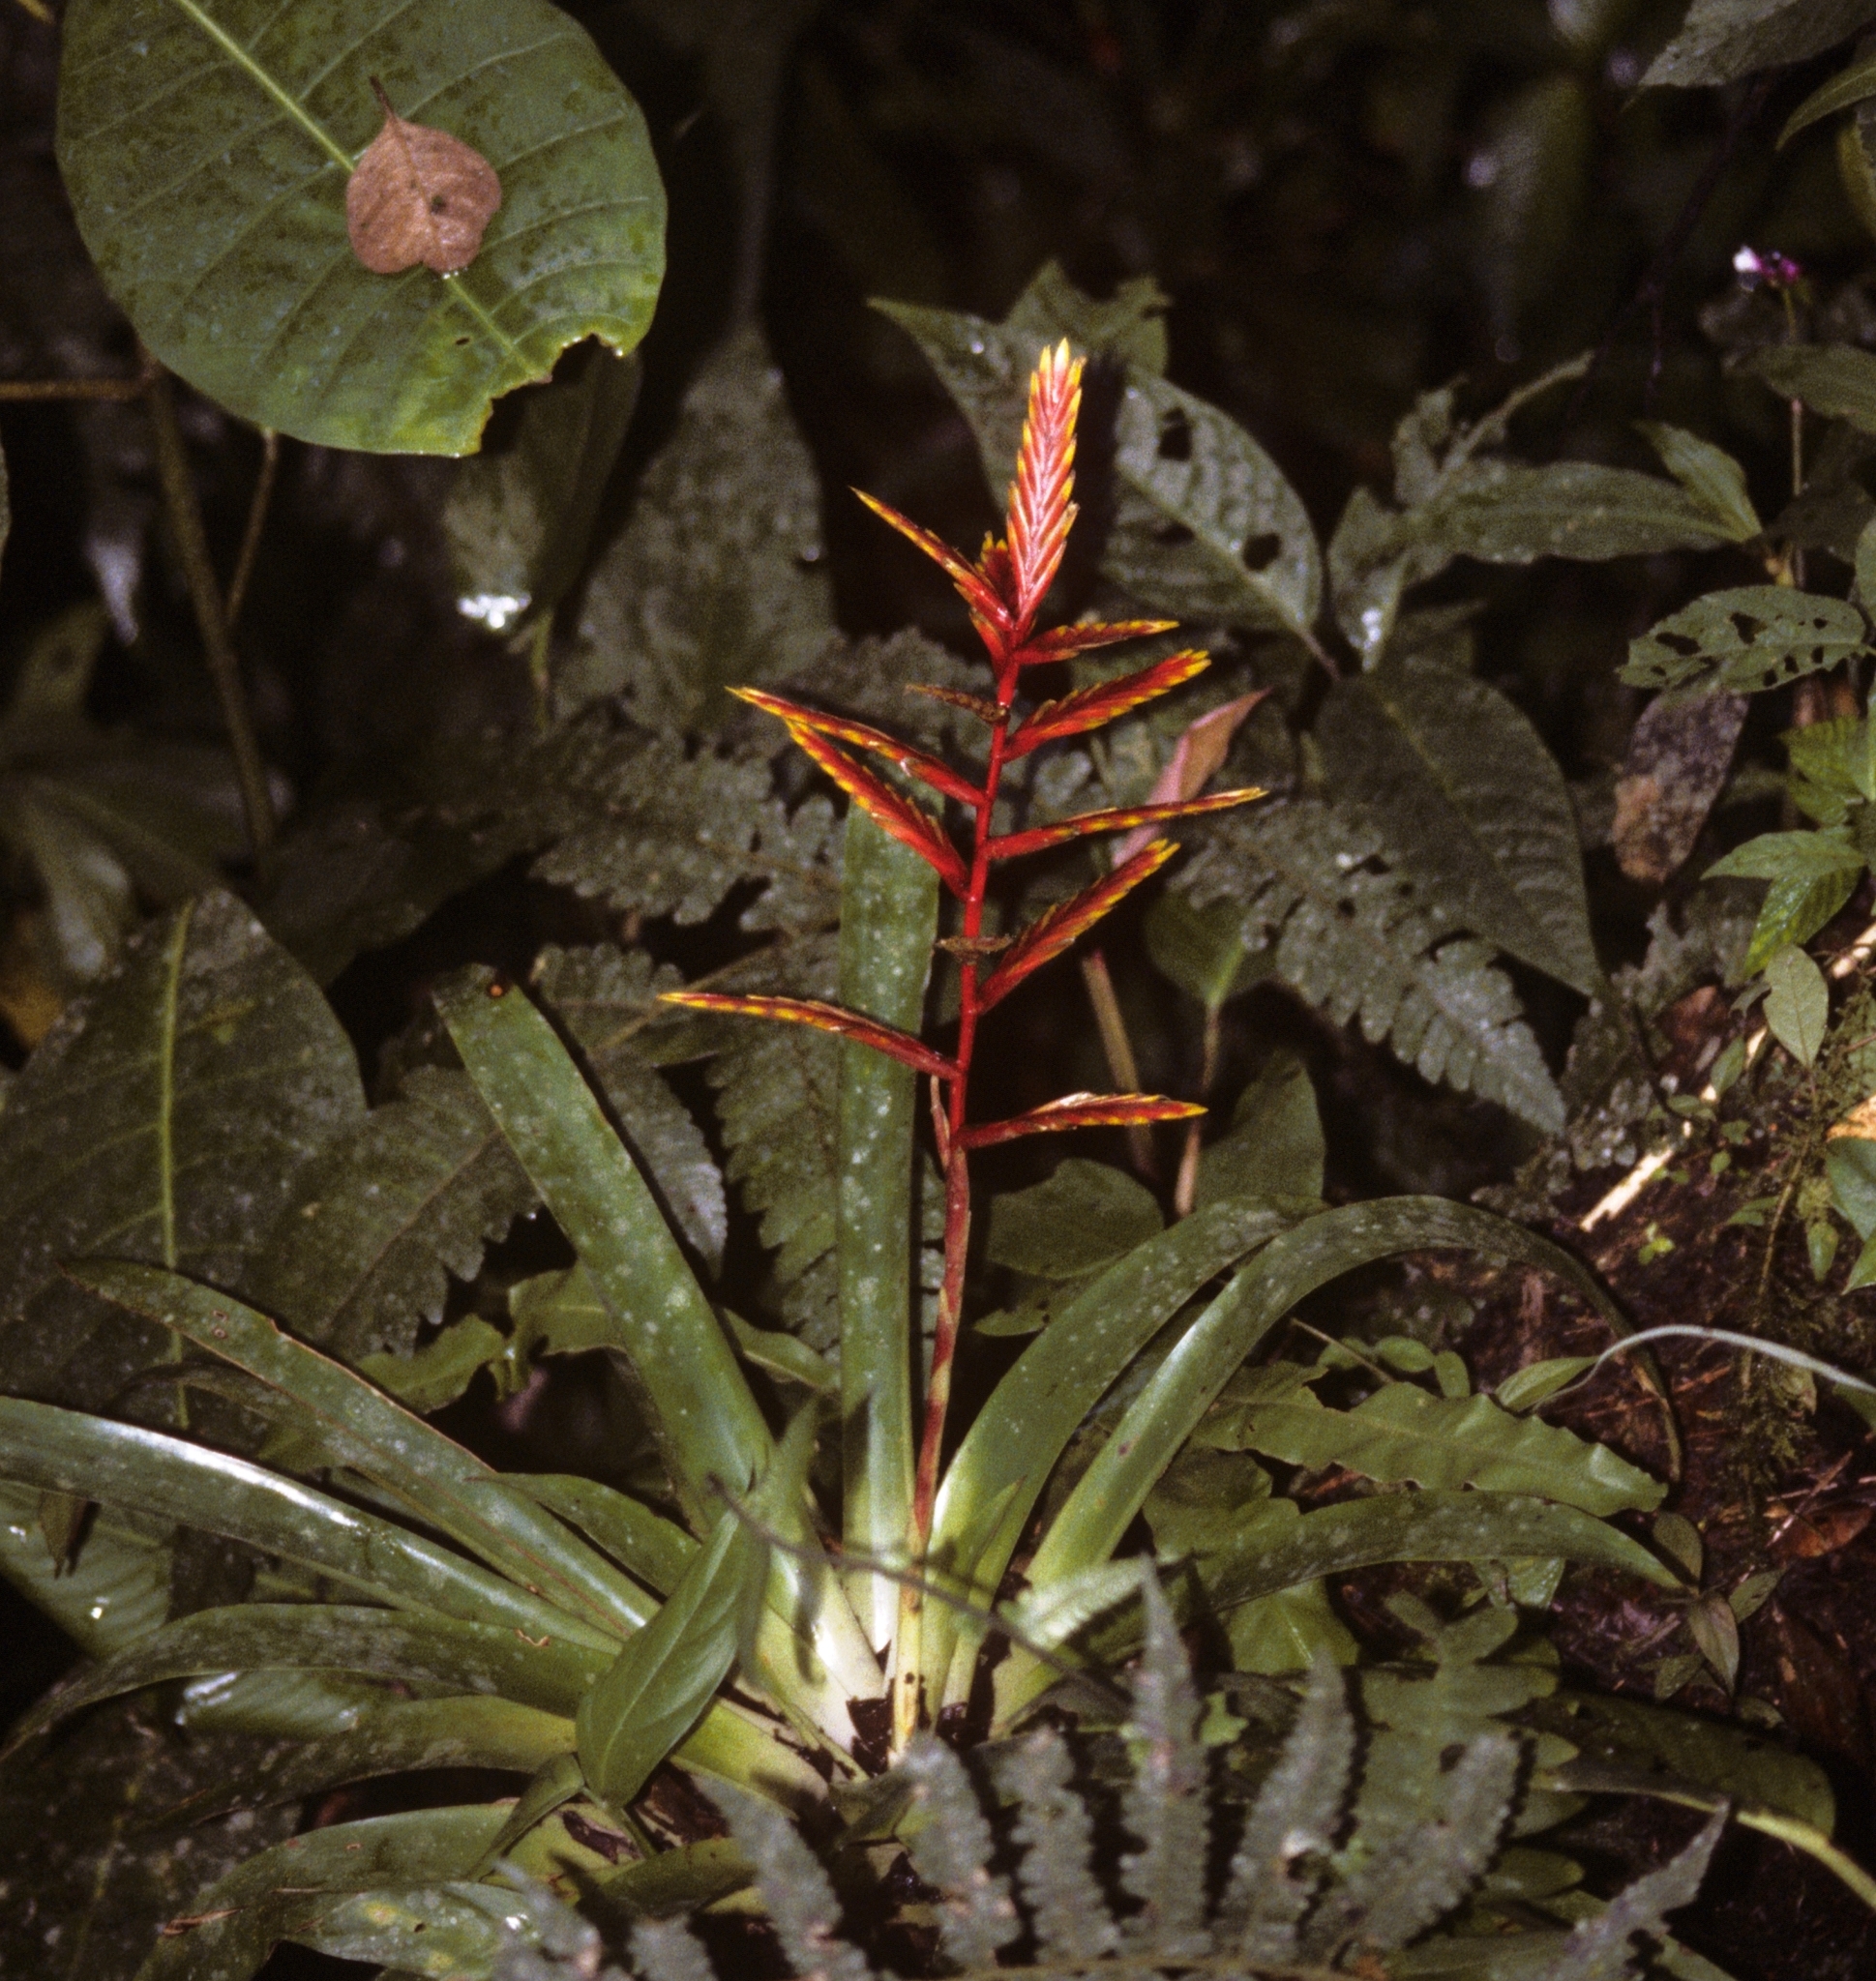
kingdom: Plantae
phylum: Tracheophyta
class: Liliopsida
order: Poales
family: Bromeliaceae
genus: Vriesea
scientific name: Vriesea zamorensis
